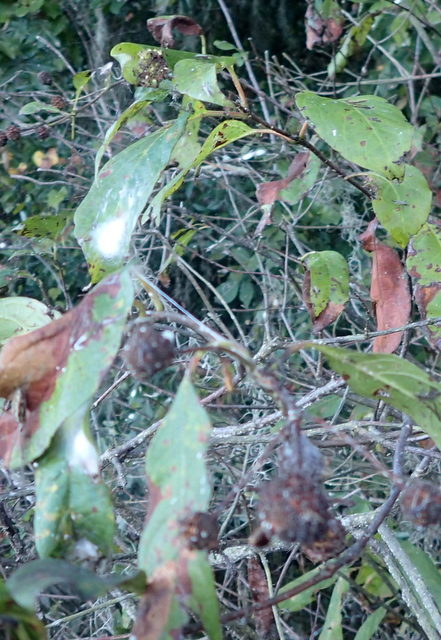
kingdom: Plantae
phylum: Tracheophyta
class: Magnoliopsida
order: Gentianales
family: Rubiaceae
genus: Cephalanthus
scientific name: Cephalanthus occidentalis
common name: Button-willow
